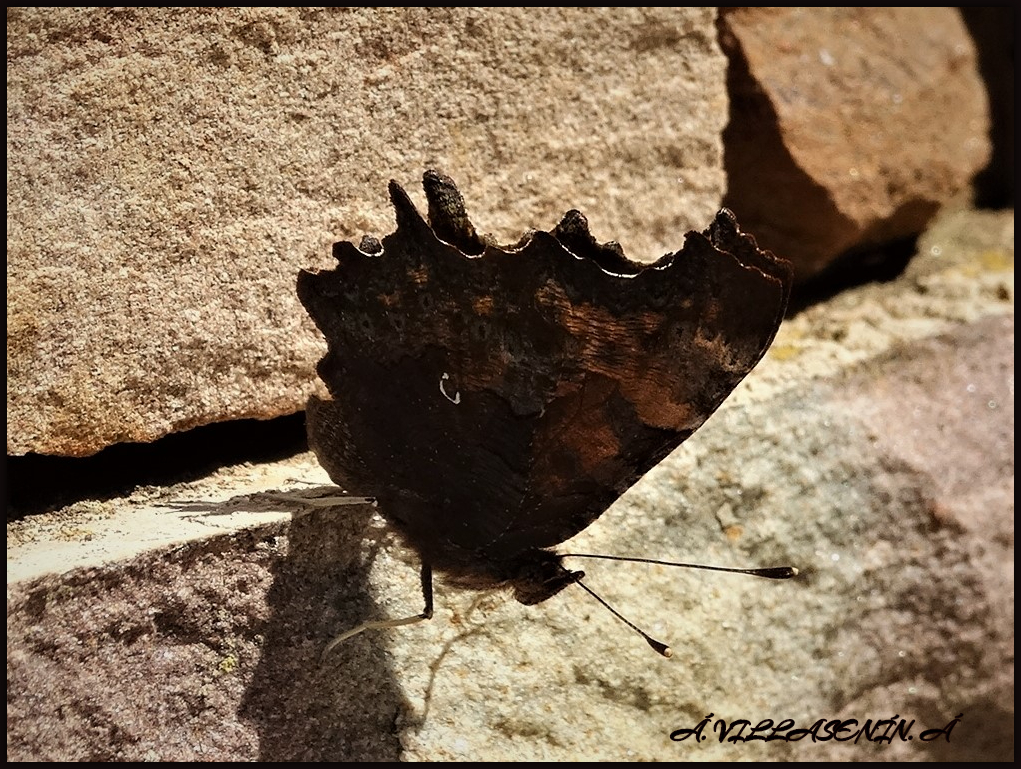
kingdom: Animalia
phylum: Arthropoda
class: Insecta
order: Lepidoptera
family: Nymphalidae
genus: Polygonia
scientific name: Polygonia c-album
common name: Comma
